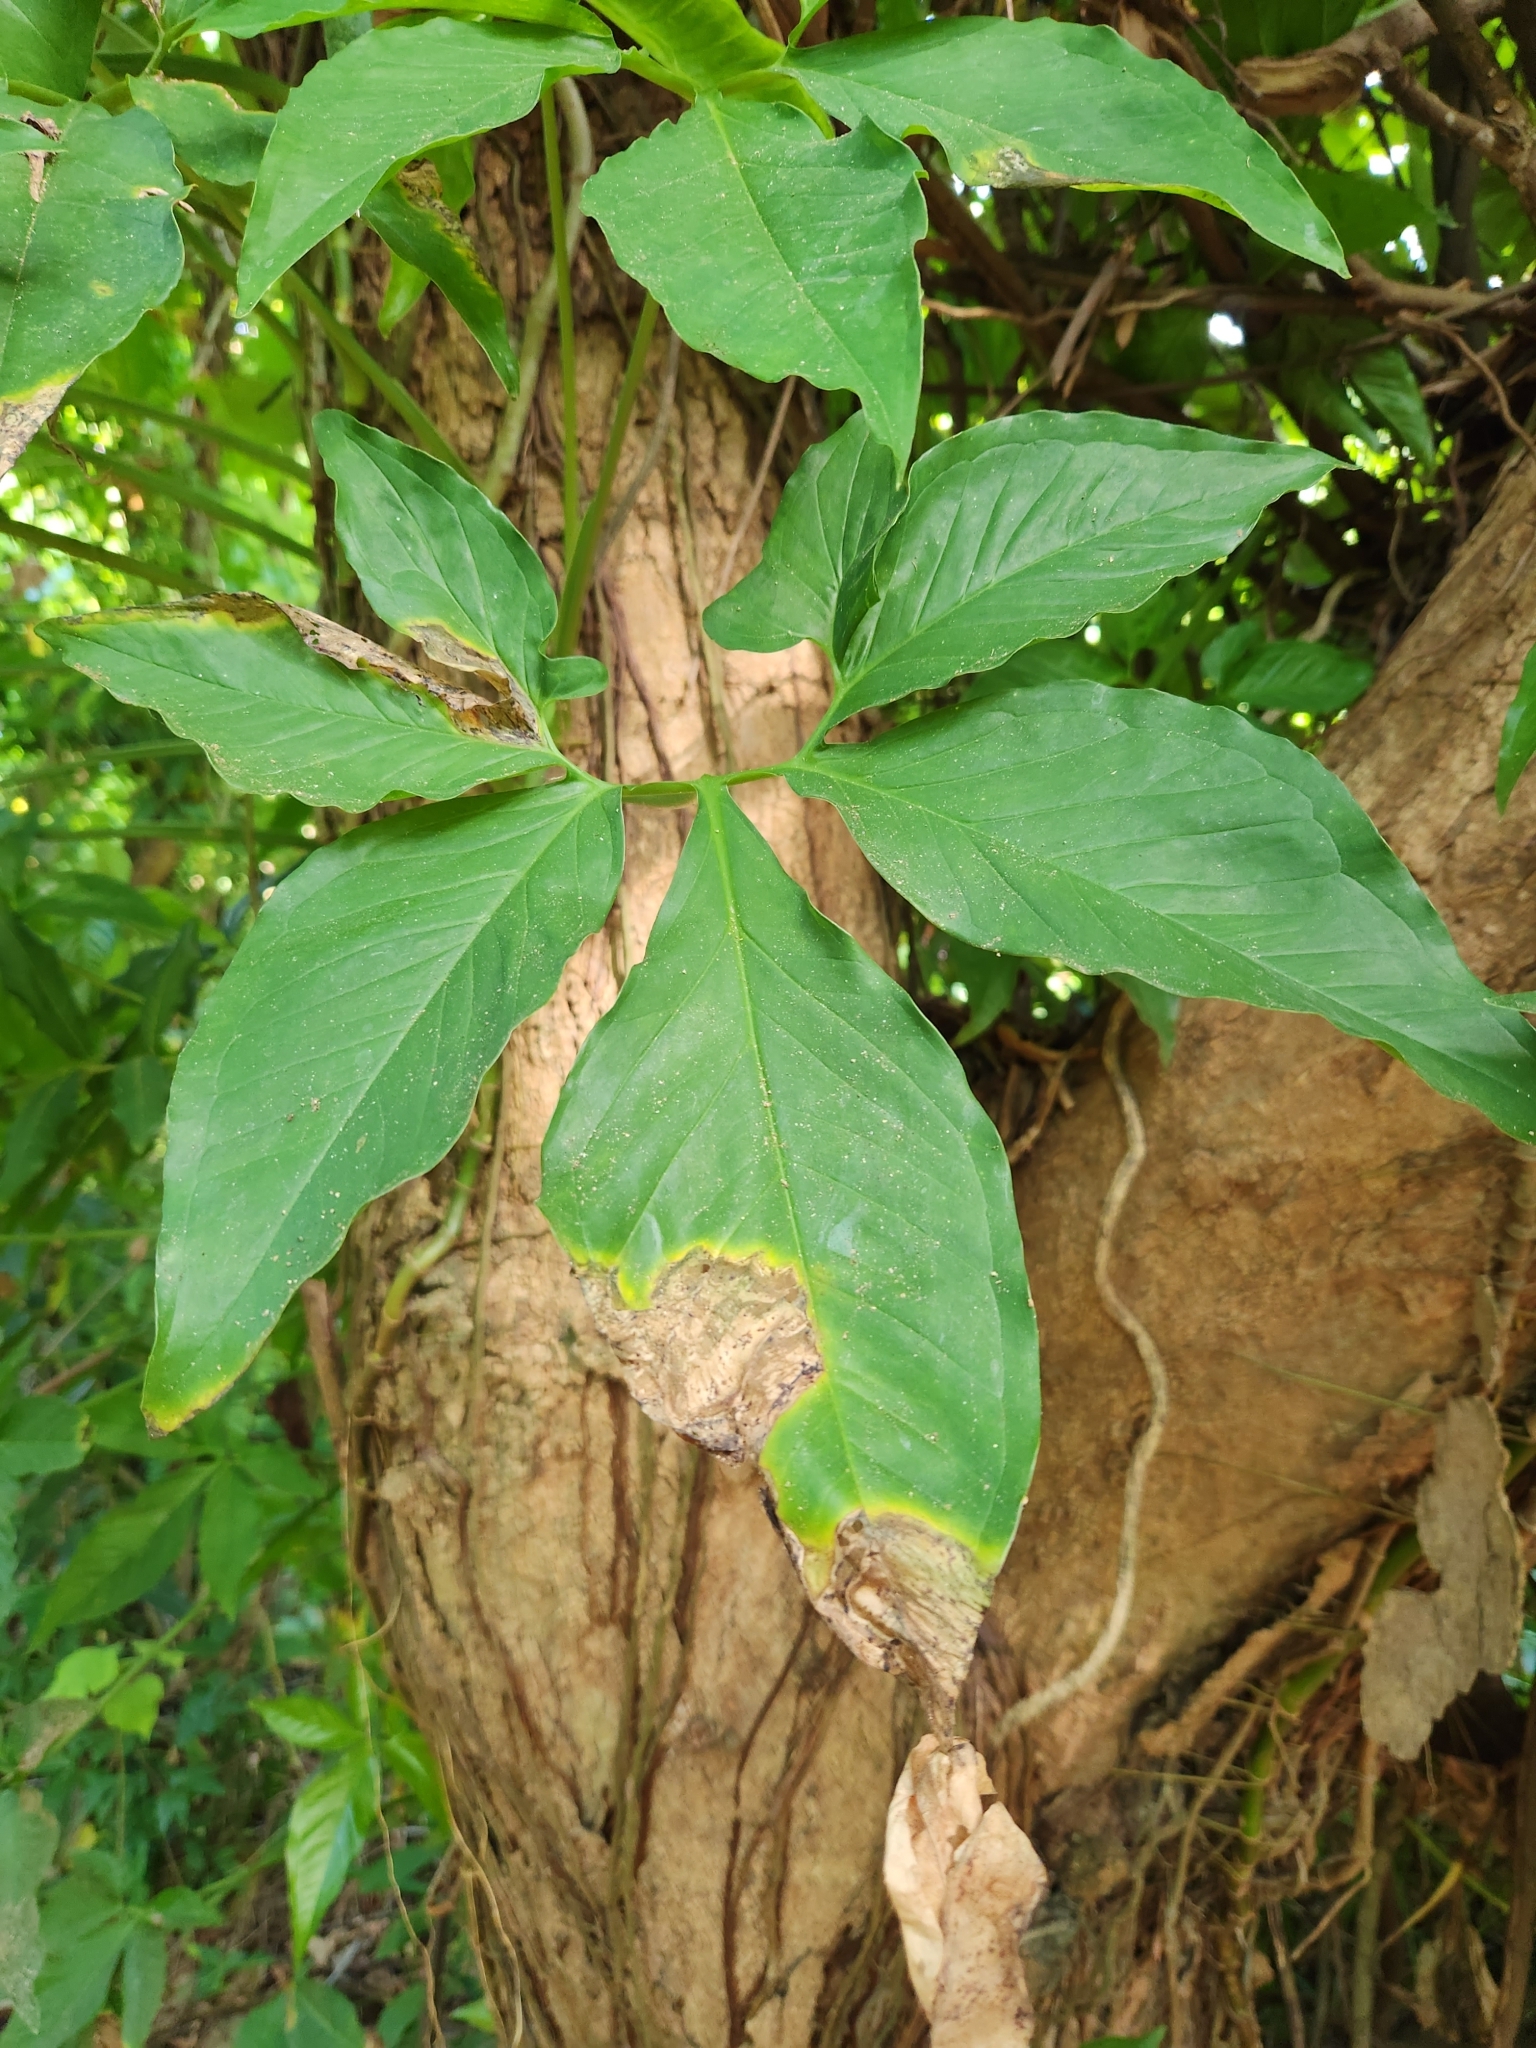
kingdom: Plantae
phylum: Tracheophyta
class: Liliopsida
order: Alismatales
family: Araceae
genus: Syngonium
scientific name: Syngonium angustatum
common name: Fivefingers
